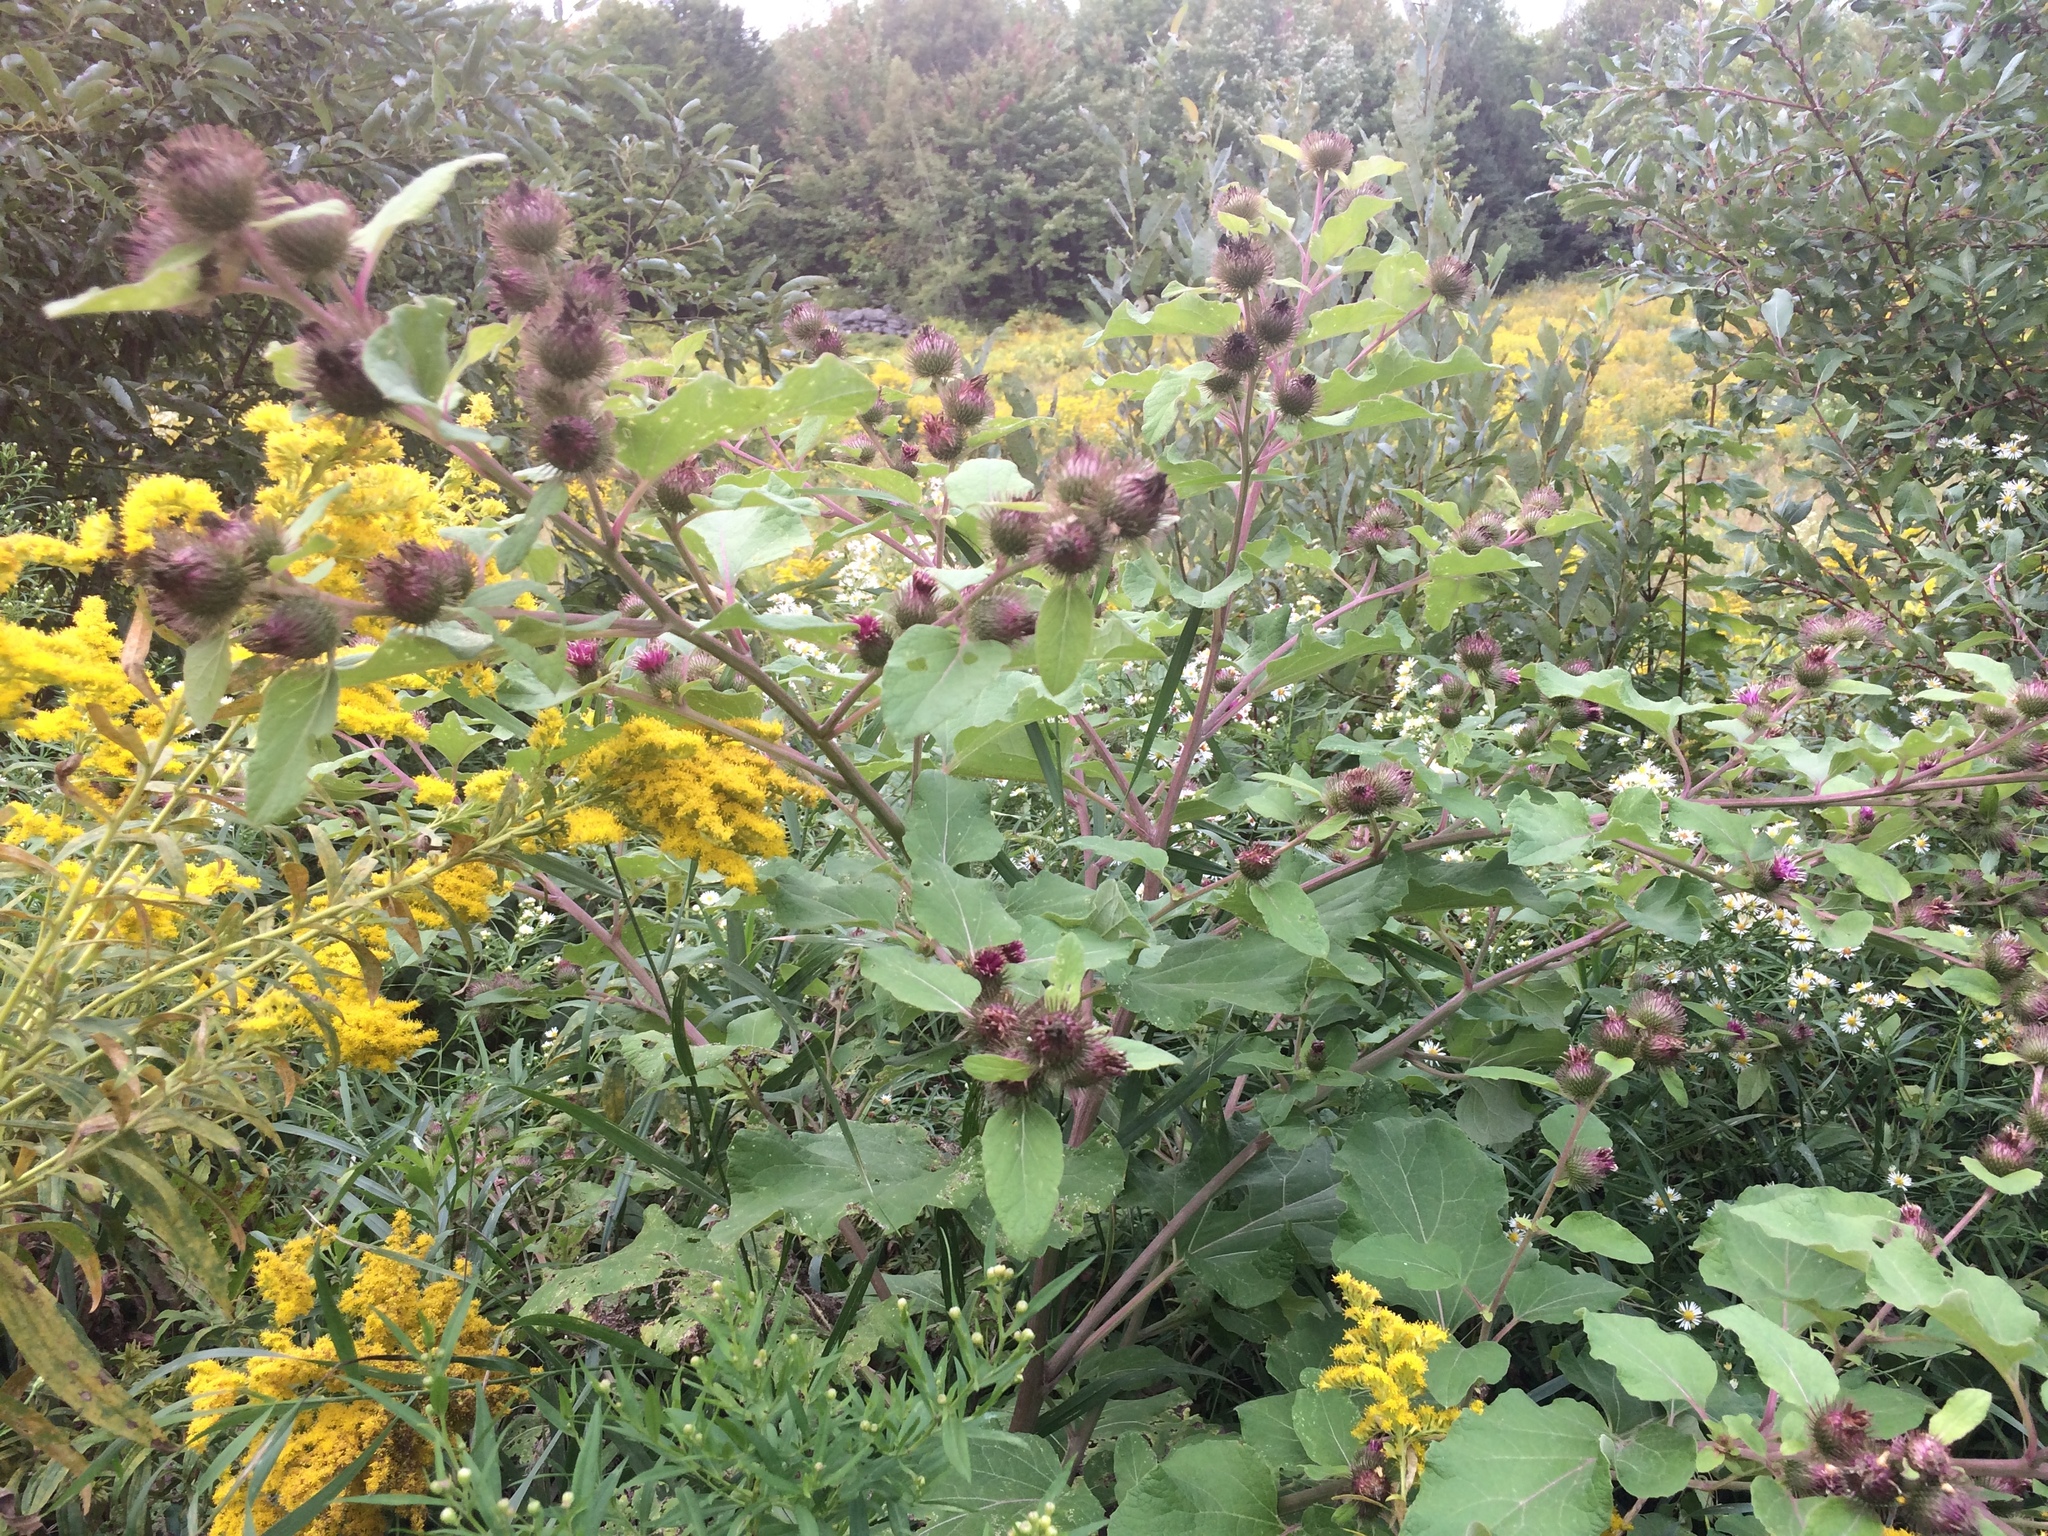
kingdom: Plantae
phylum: Tracheophyta
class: Magnoliopsida
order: Asterales
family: Asteraceae
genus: Arctium
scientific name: Arctium minus
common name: Lesser burdock
